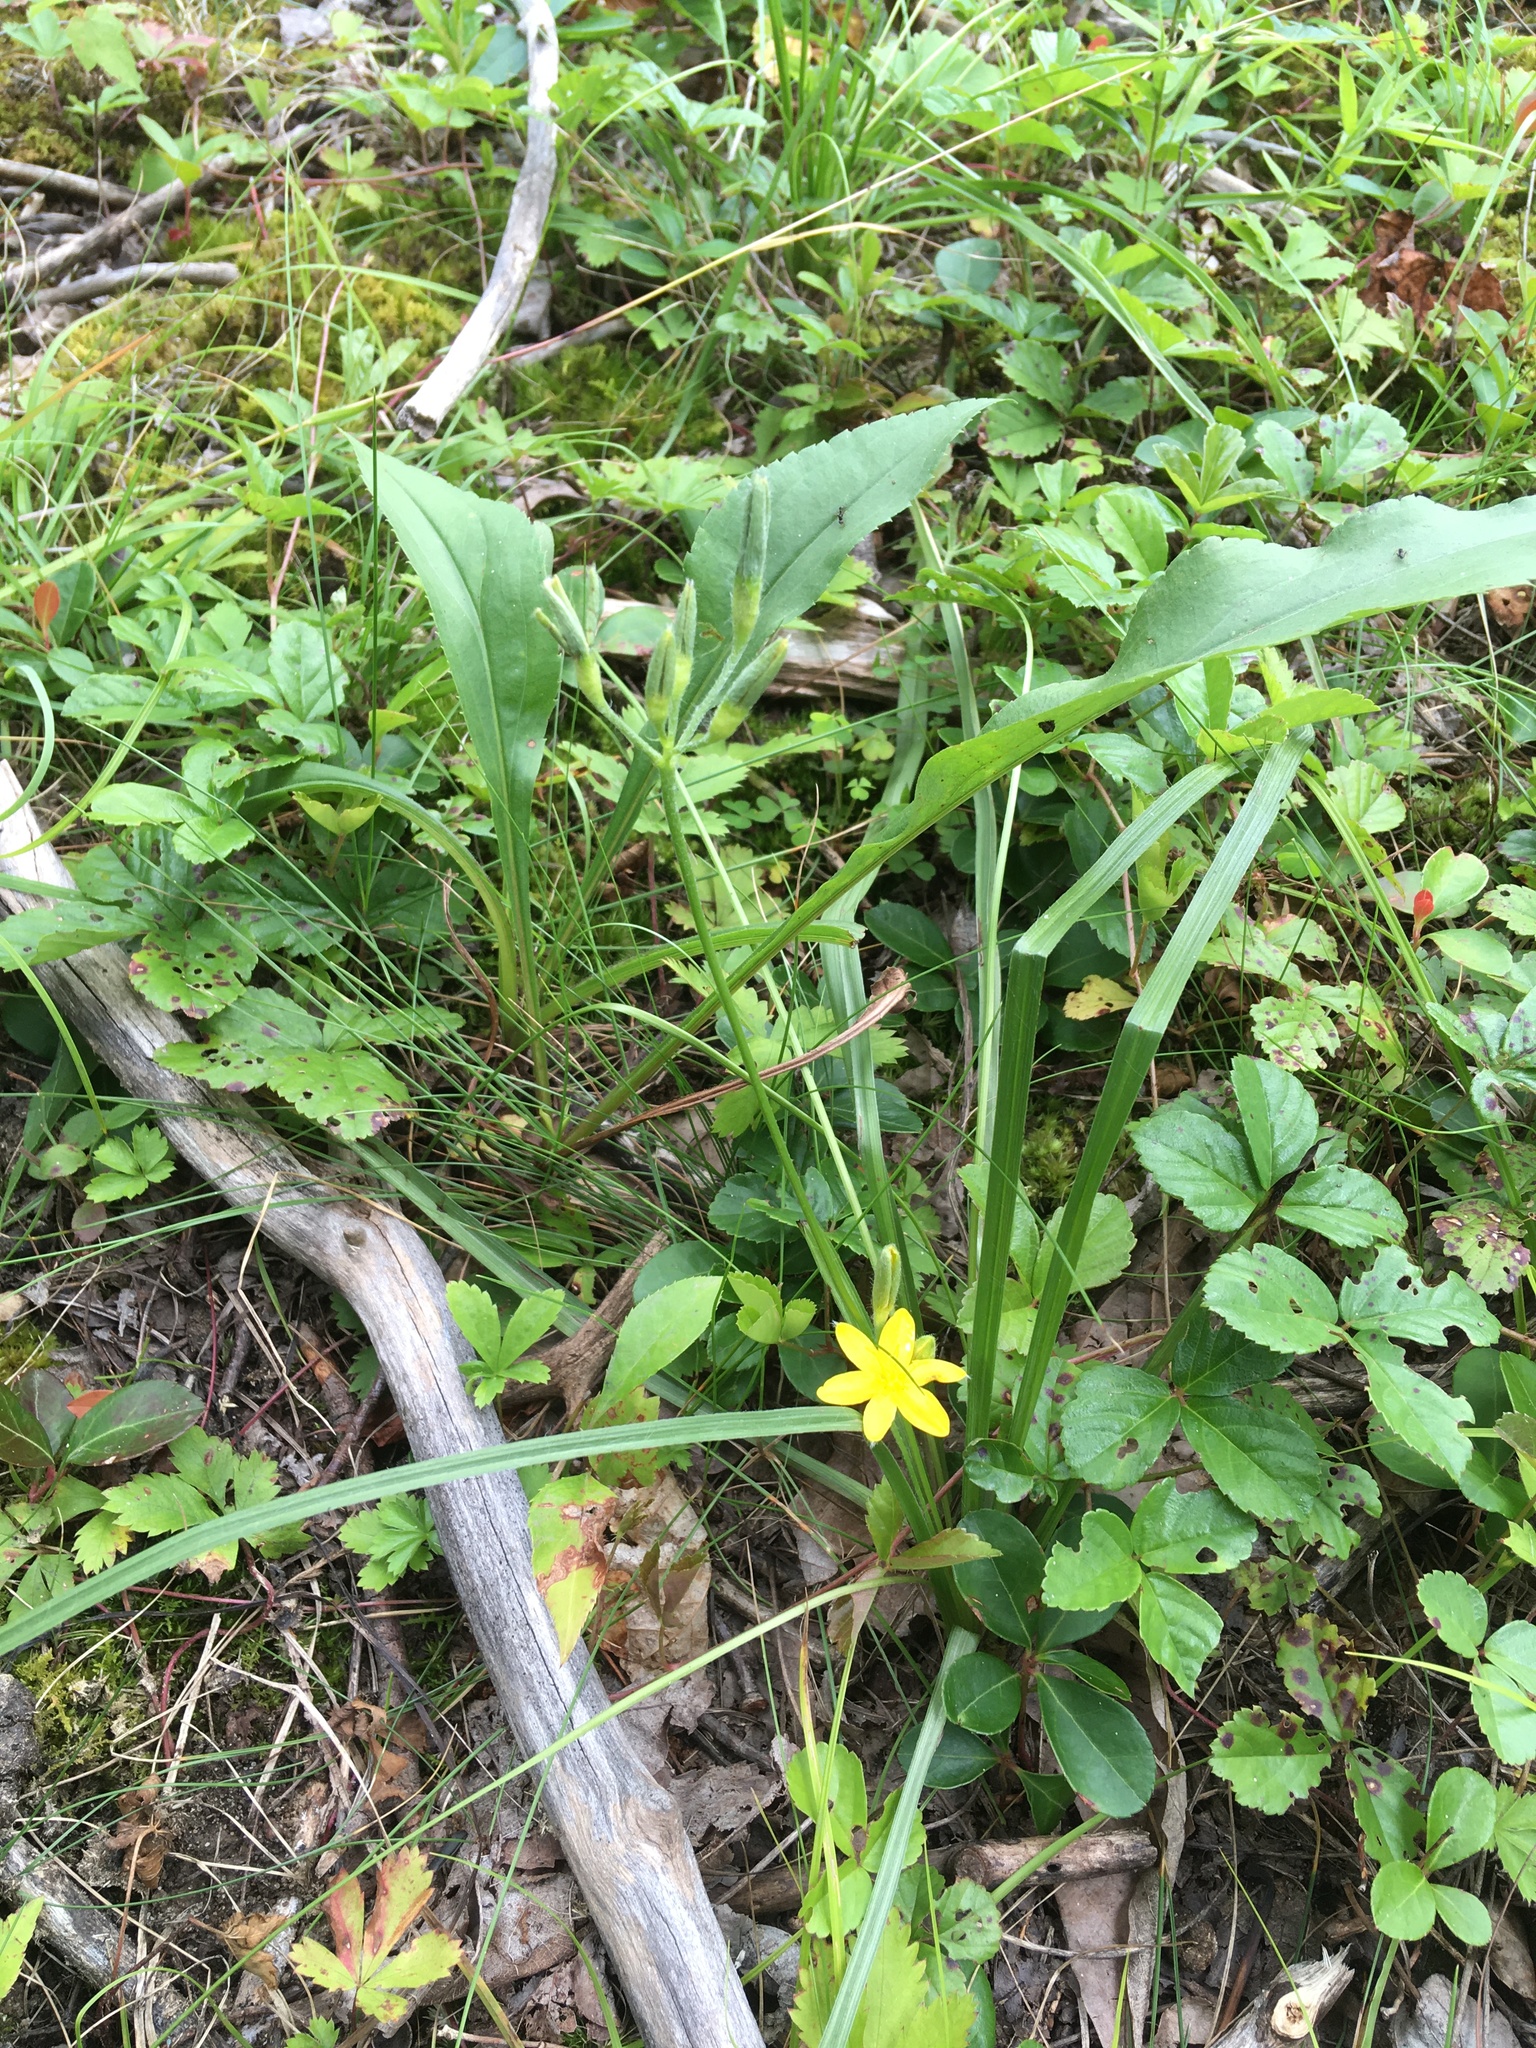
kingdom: Plantae
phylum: Tracheophyta
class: Liliopsida
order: Asparagales
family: Hypoxidaceae
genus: Hypoxis
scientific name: Hypoxis hirsuta
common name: Common goldstar
